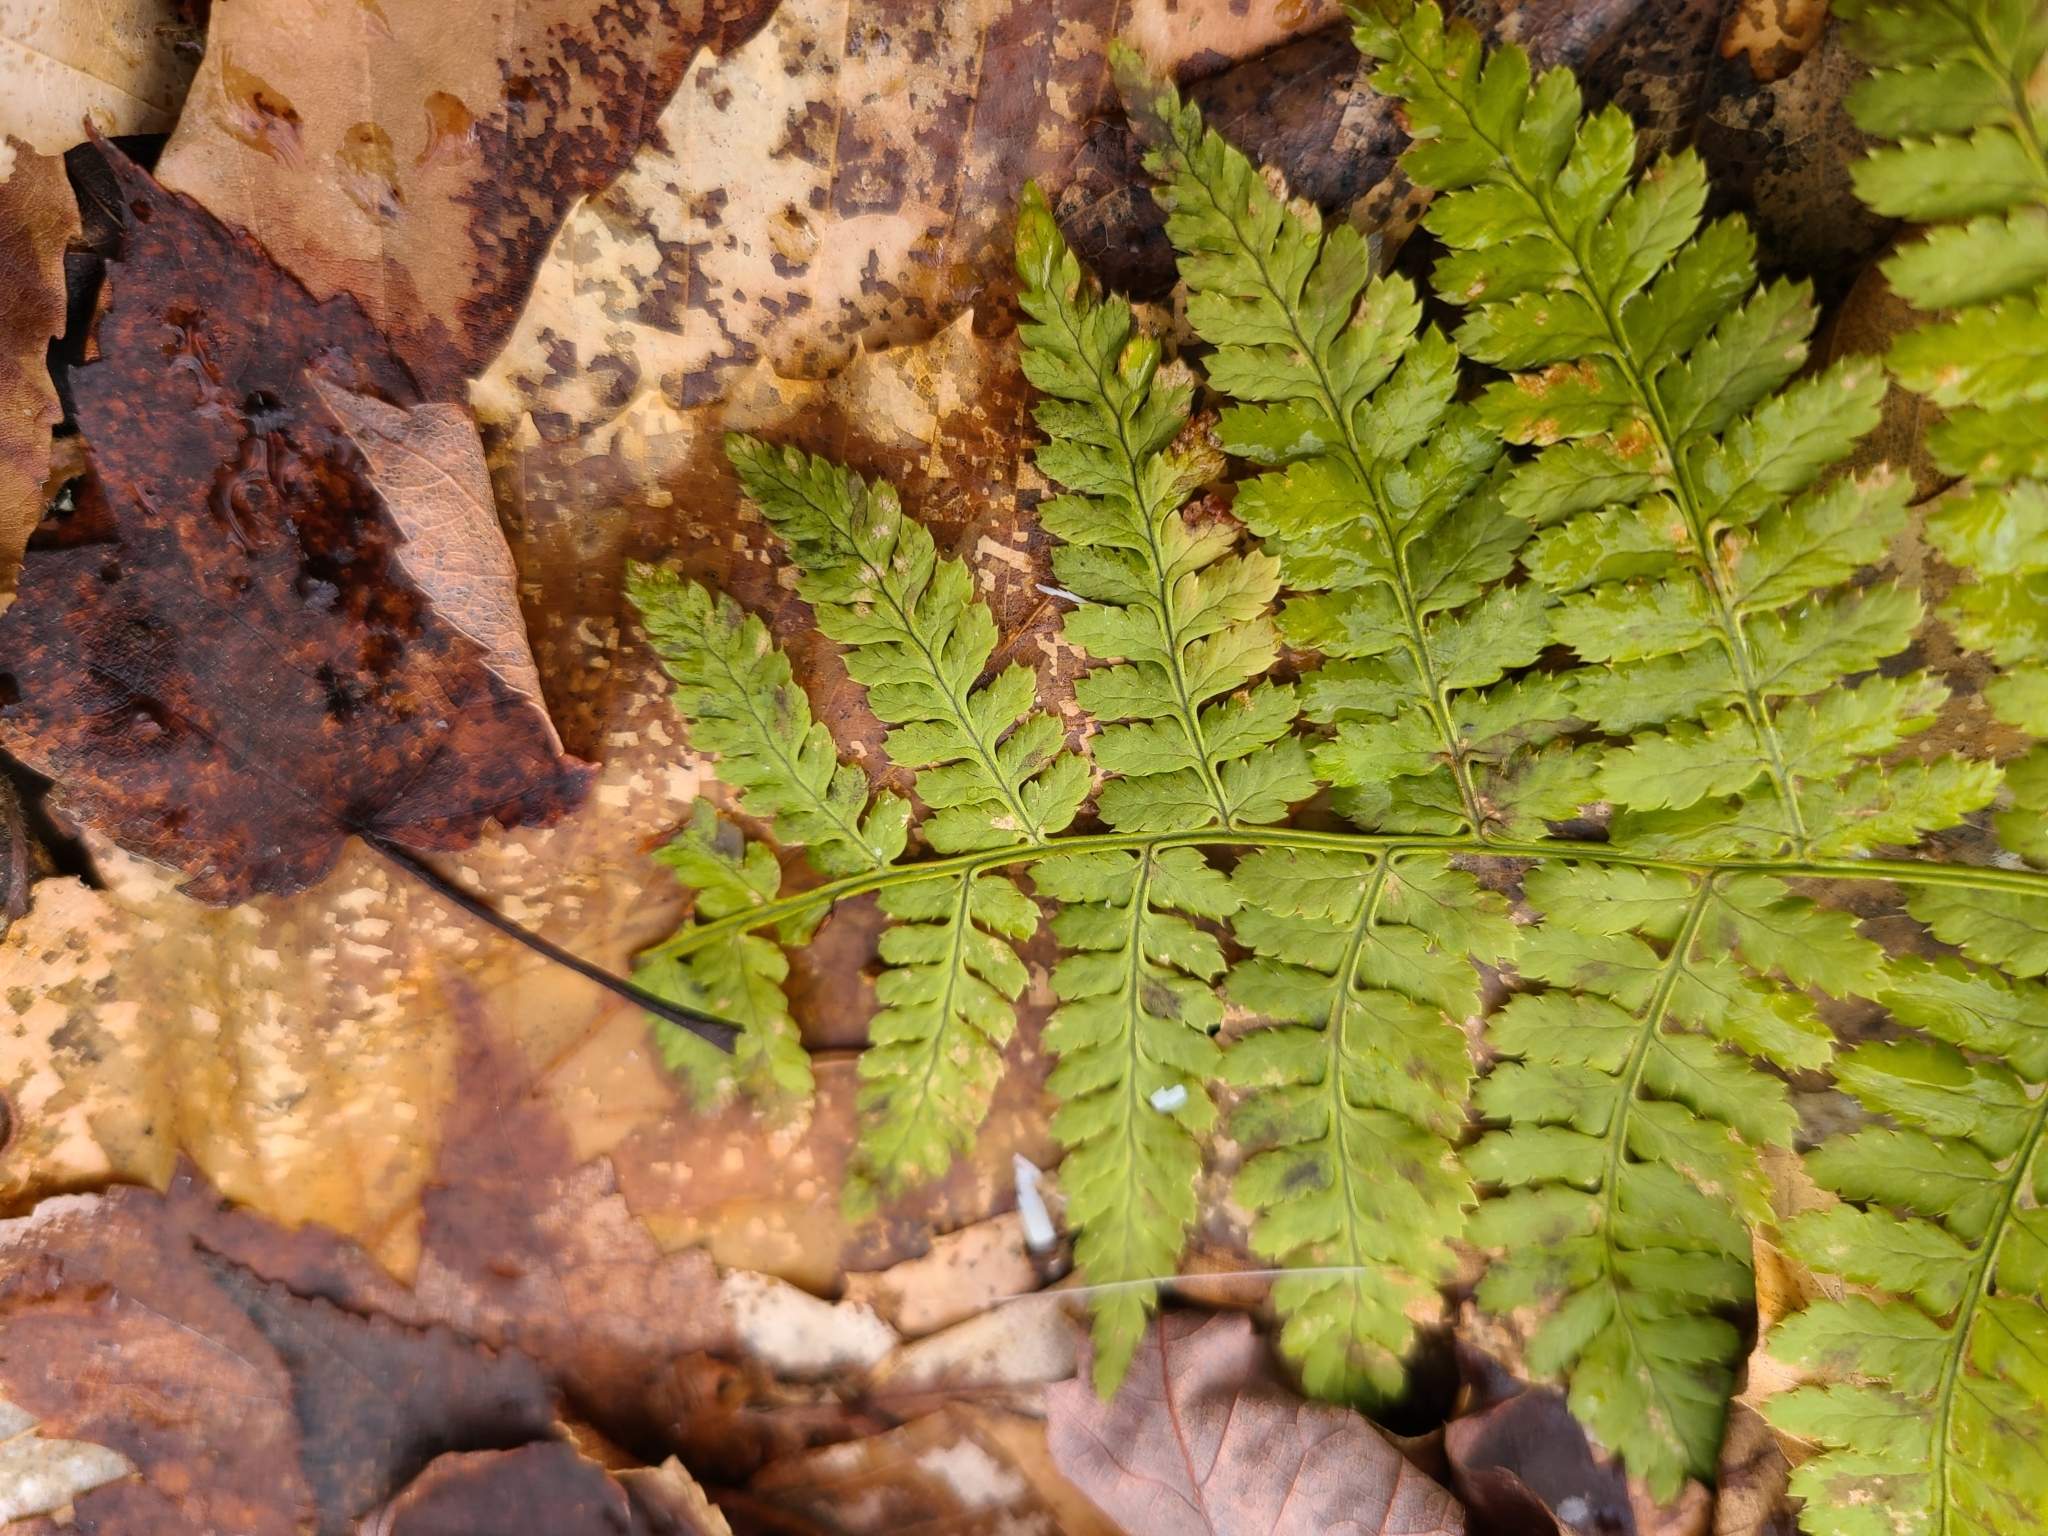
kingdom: Plantae
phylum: Tracheophyta
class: Polypodiopsida
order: Polypodiales
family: Dryopteridaceae
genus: Dryopteris
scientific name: Dryopteris intermedia
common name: Evergreen wood fern
